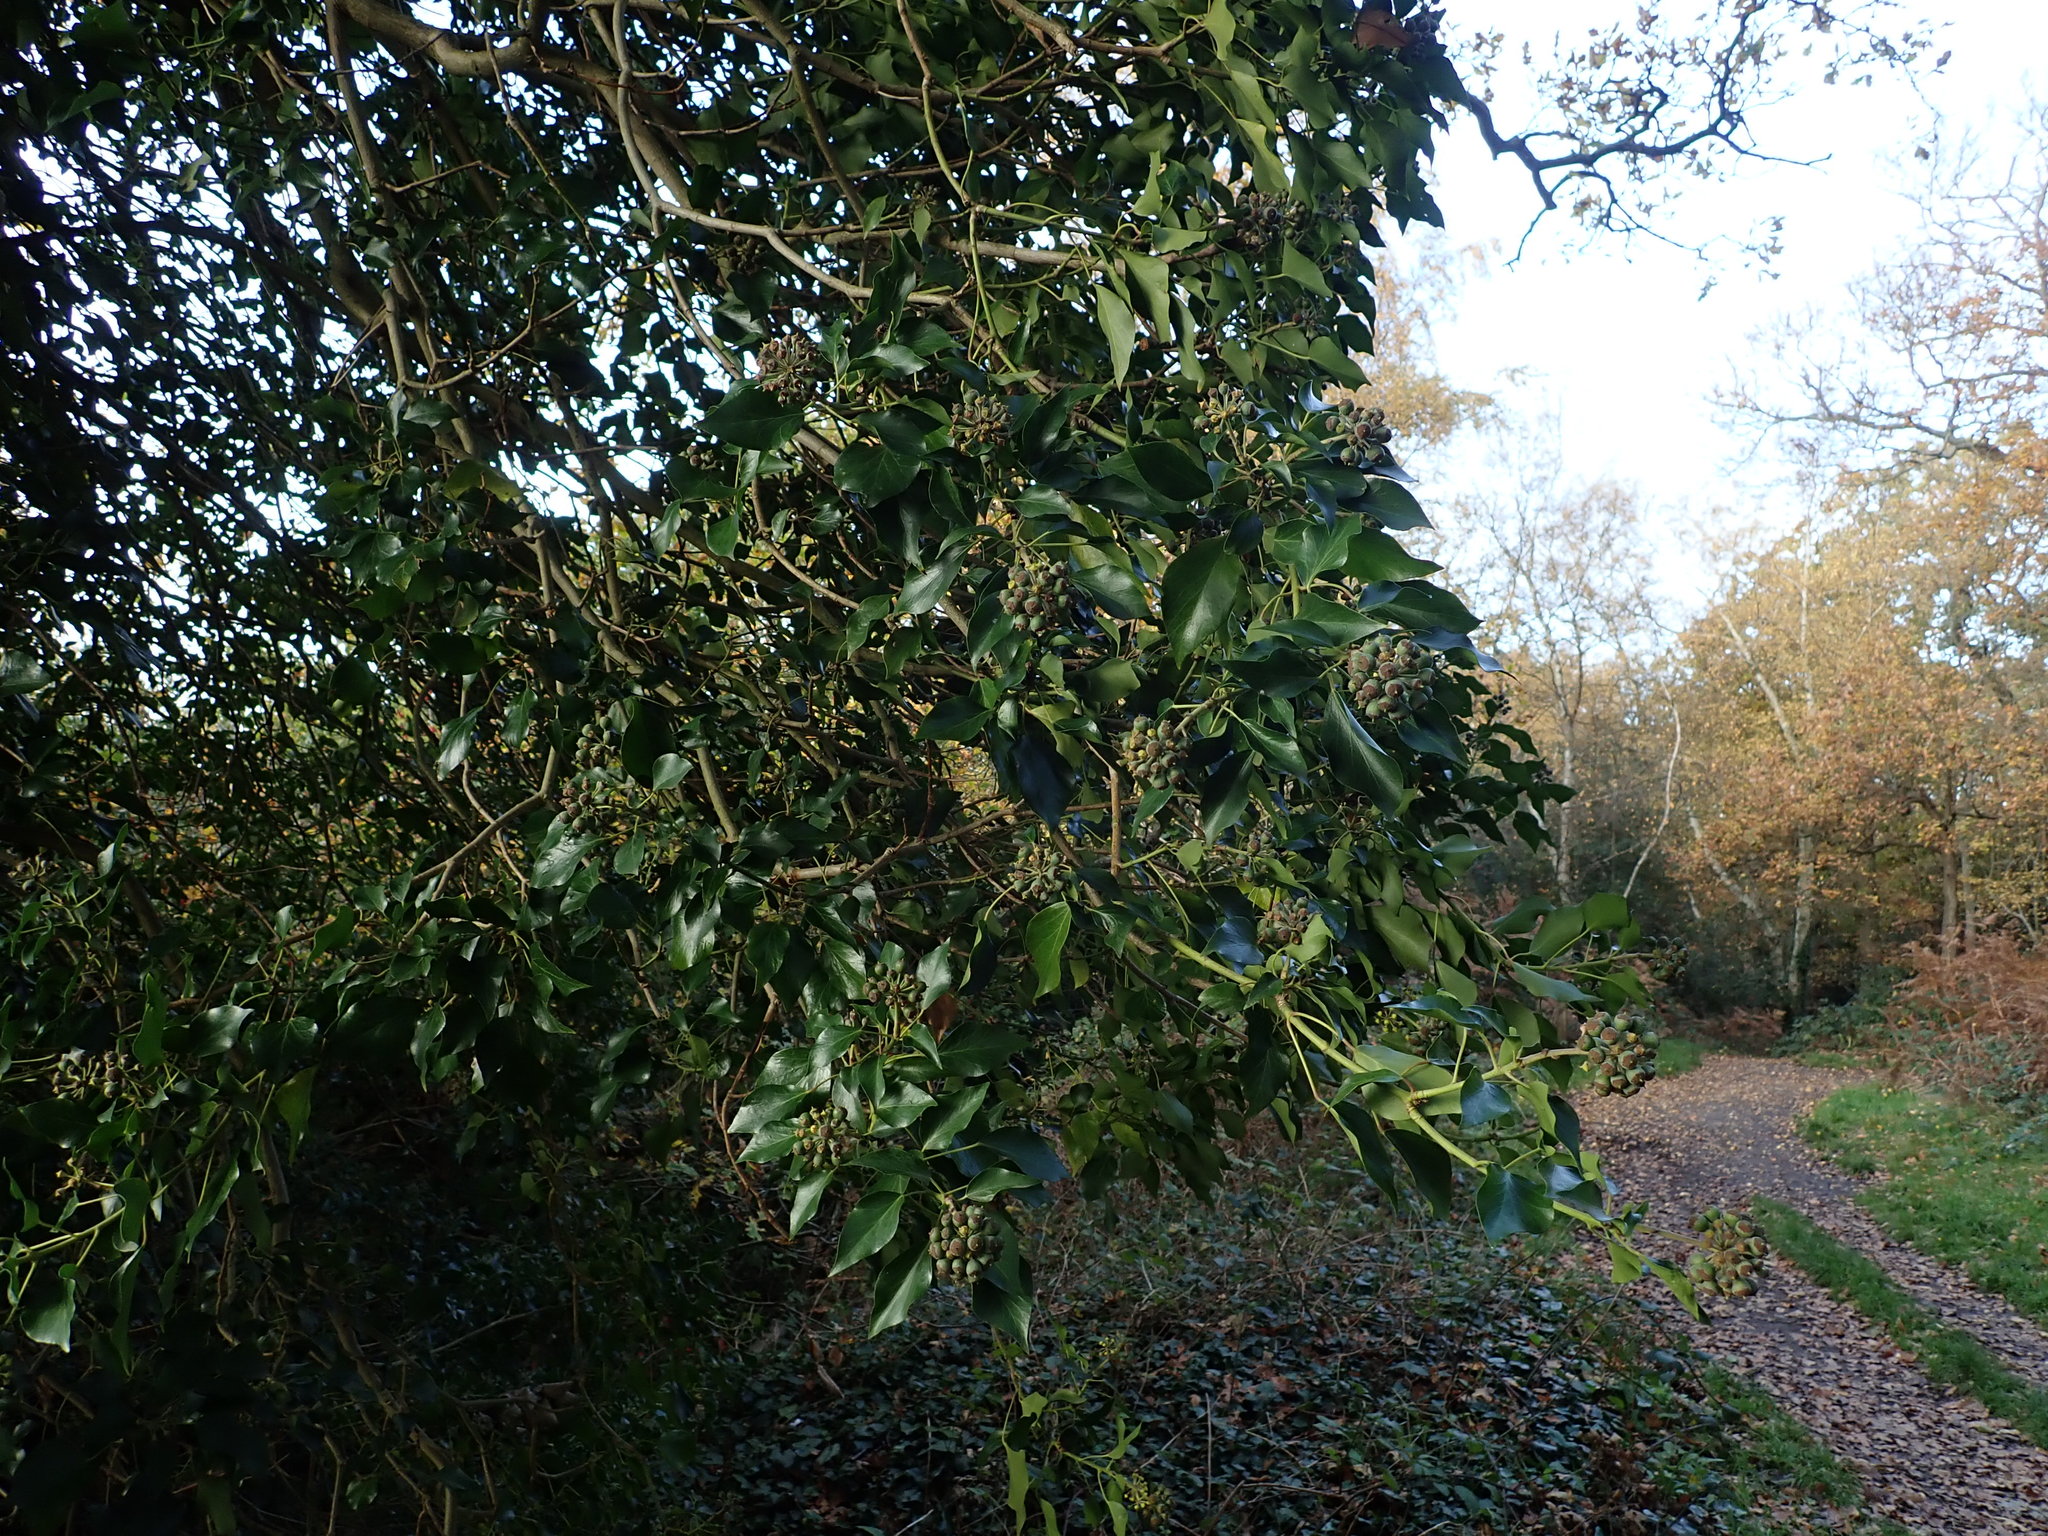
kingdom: Plantae
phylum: Tracheophyta
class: Magnoliopsida
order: Apiales
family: Araliaceae
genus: Hedera
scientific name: Hedera helix
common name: Ivy
